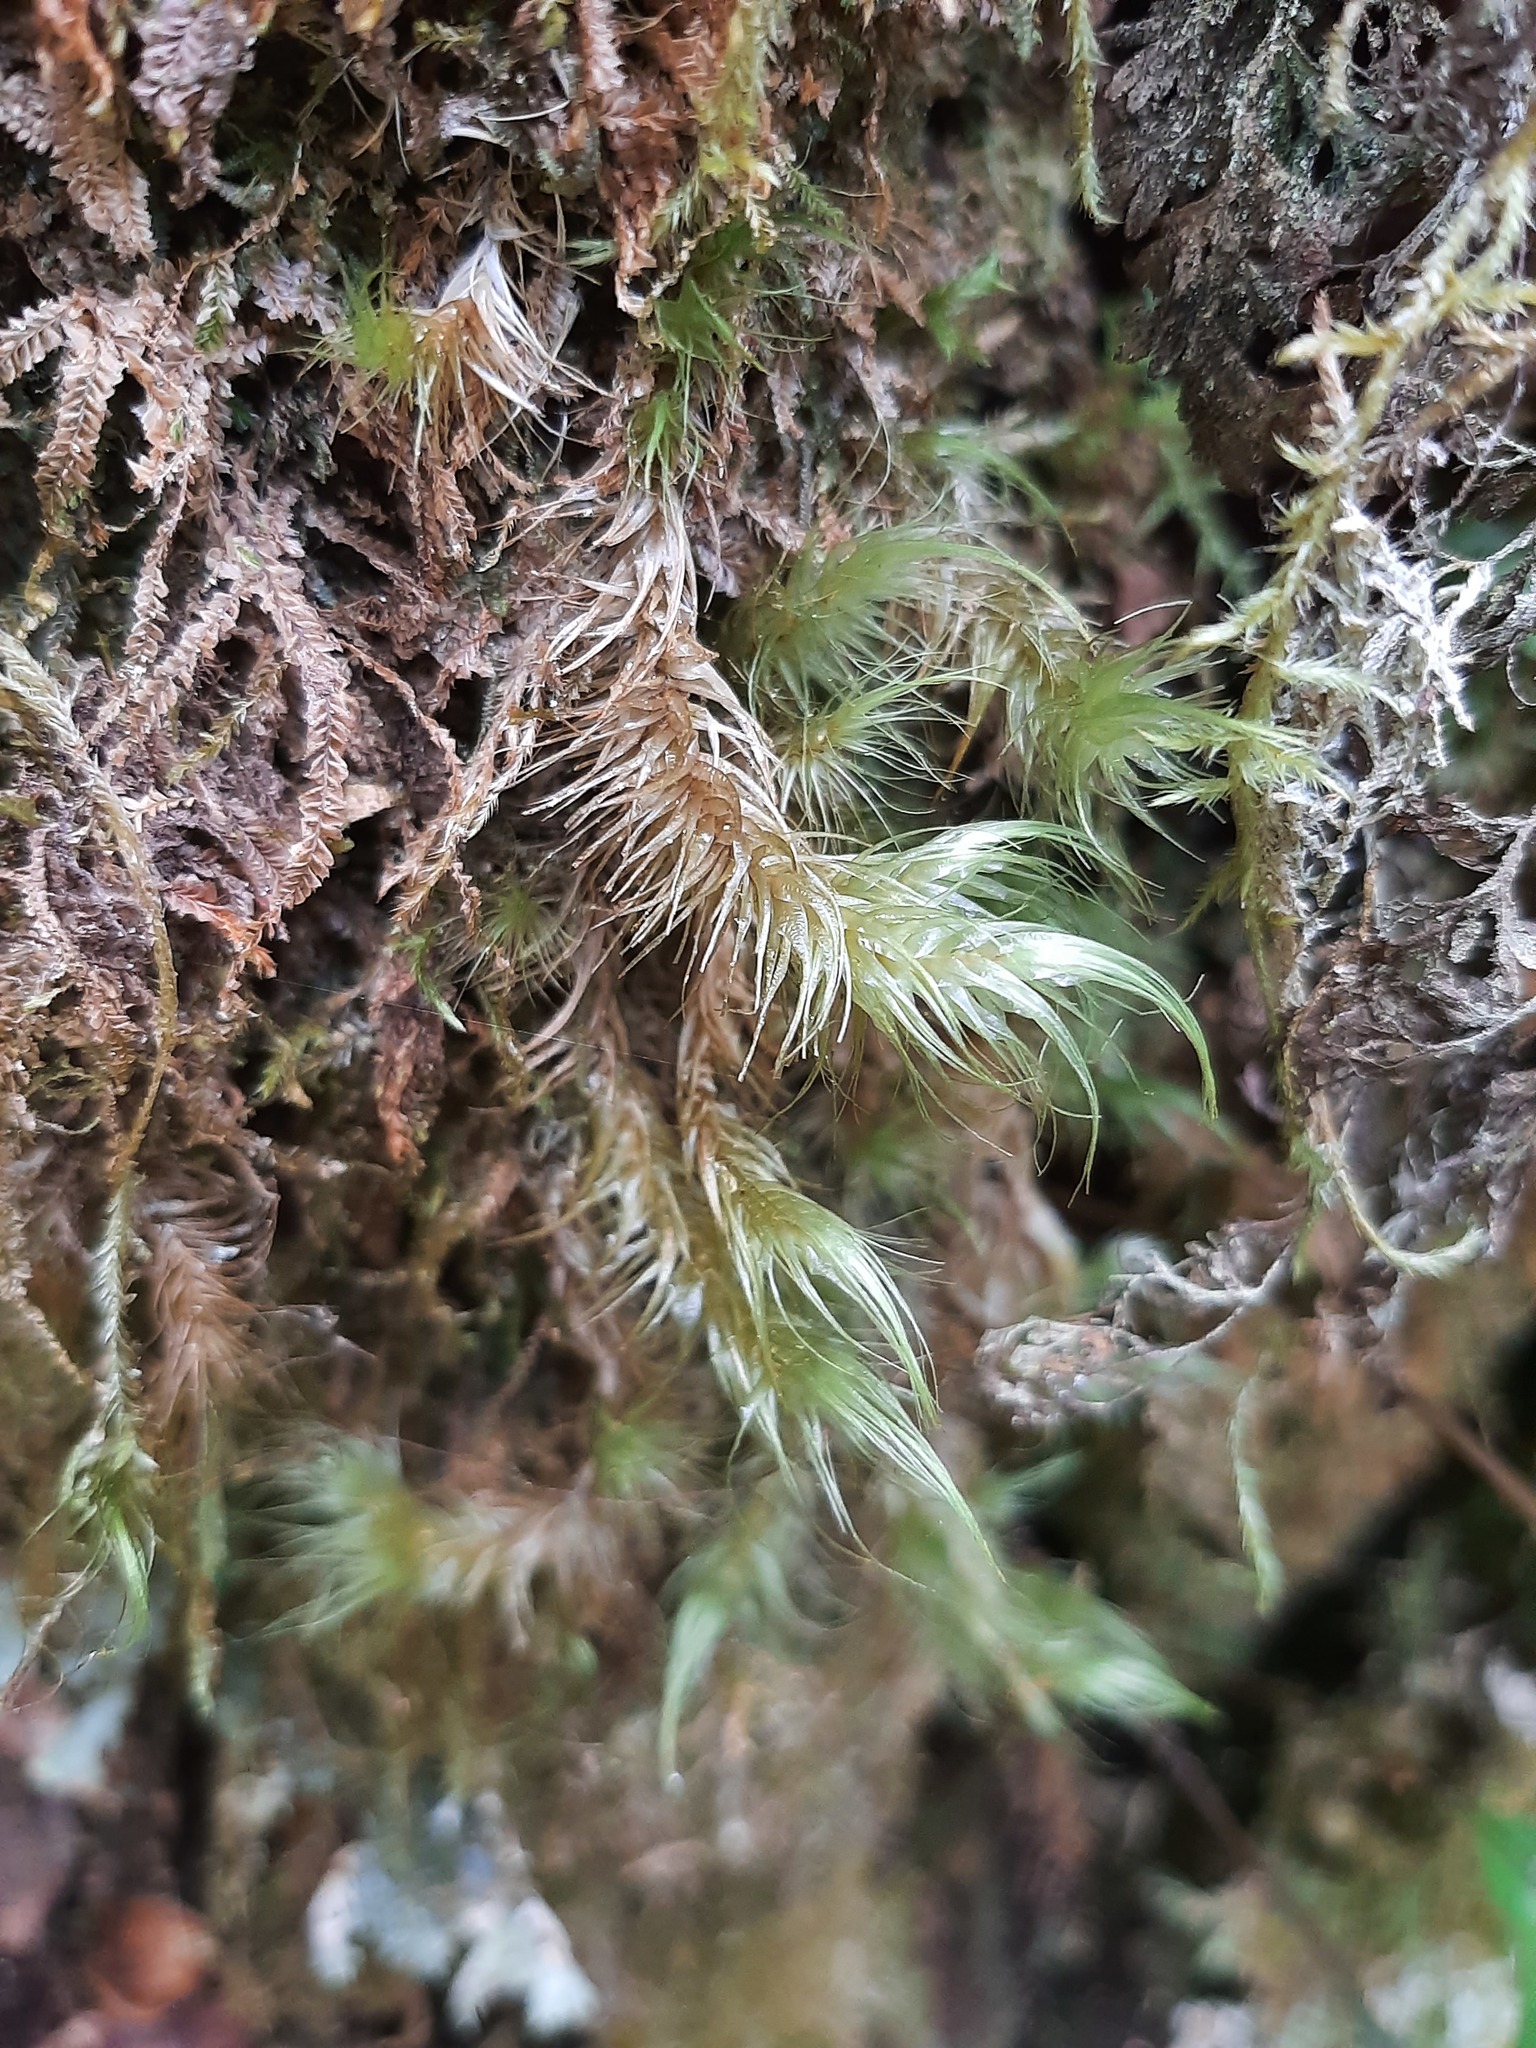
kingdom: Plantae
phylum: Bryophyta
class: Bryopsida
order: Dicranales
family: Dicranaceae
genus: Dicranoloma
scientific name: Dicranoloma platycaulon
